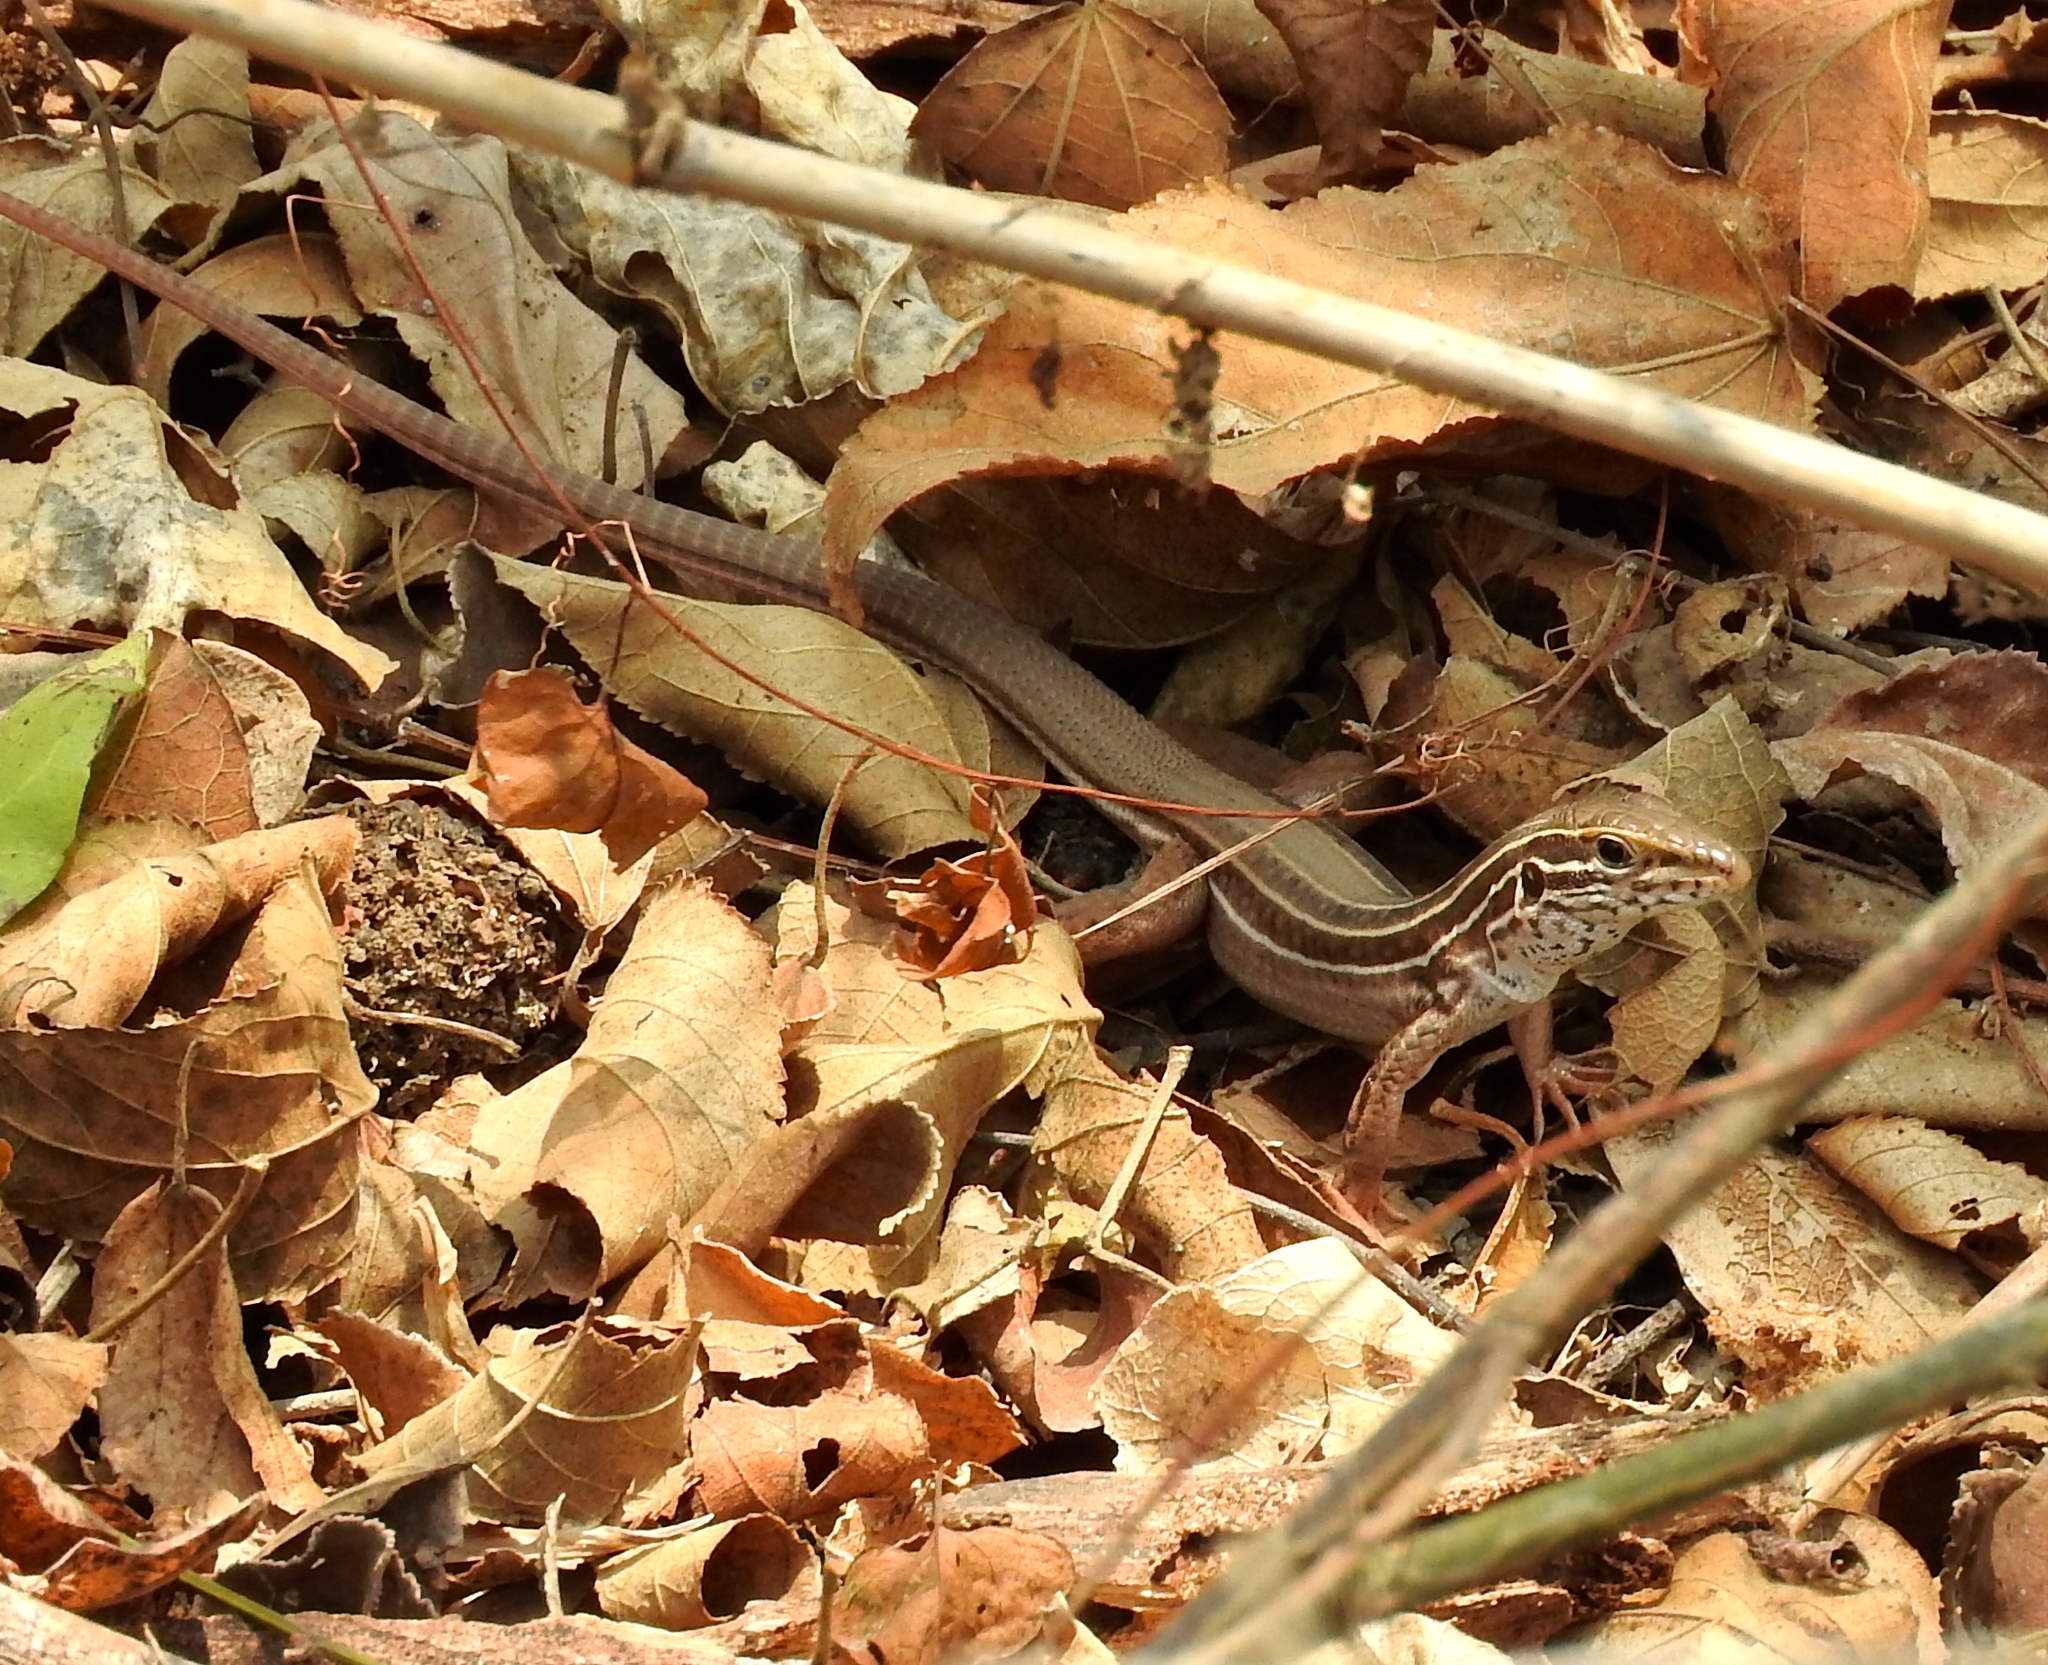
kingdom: Animalia
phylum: Chordata
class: Squamata
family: Teiidae
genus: Aspidoscelis
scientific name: Aspidoscelis costatus
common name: Western mexico whiptail
